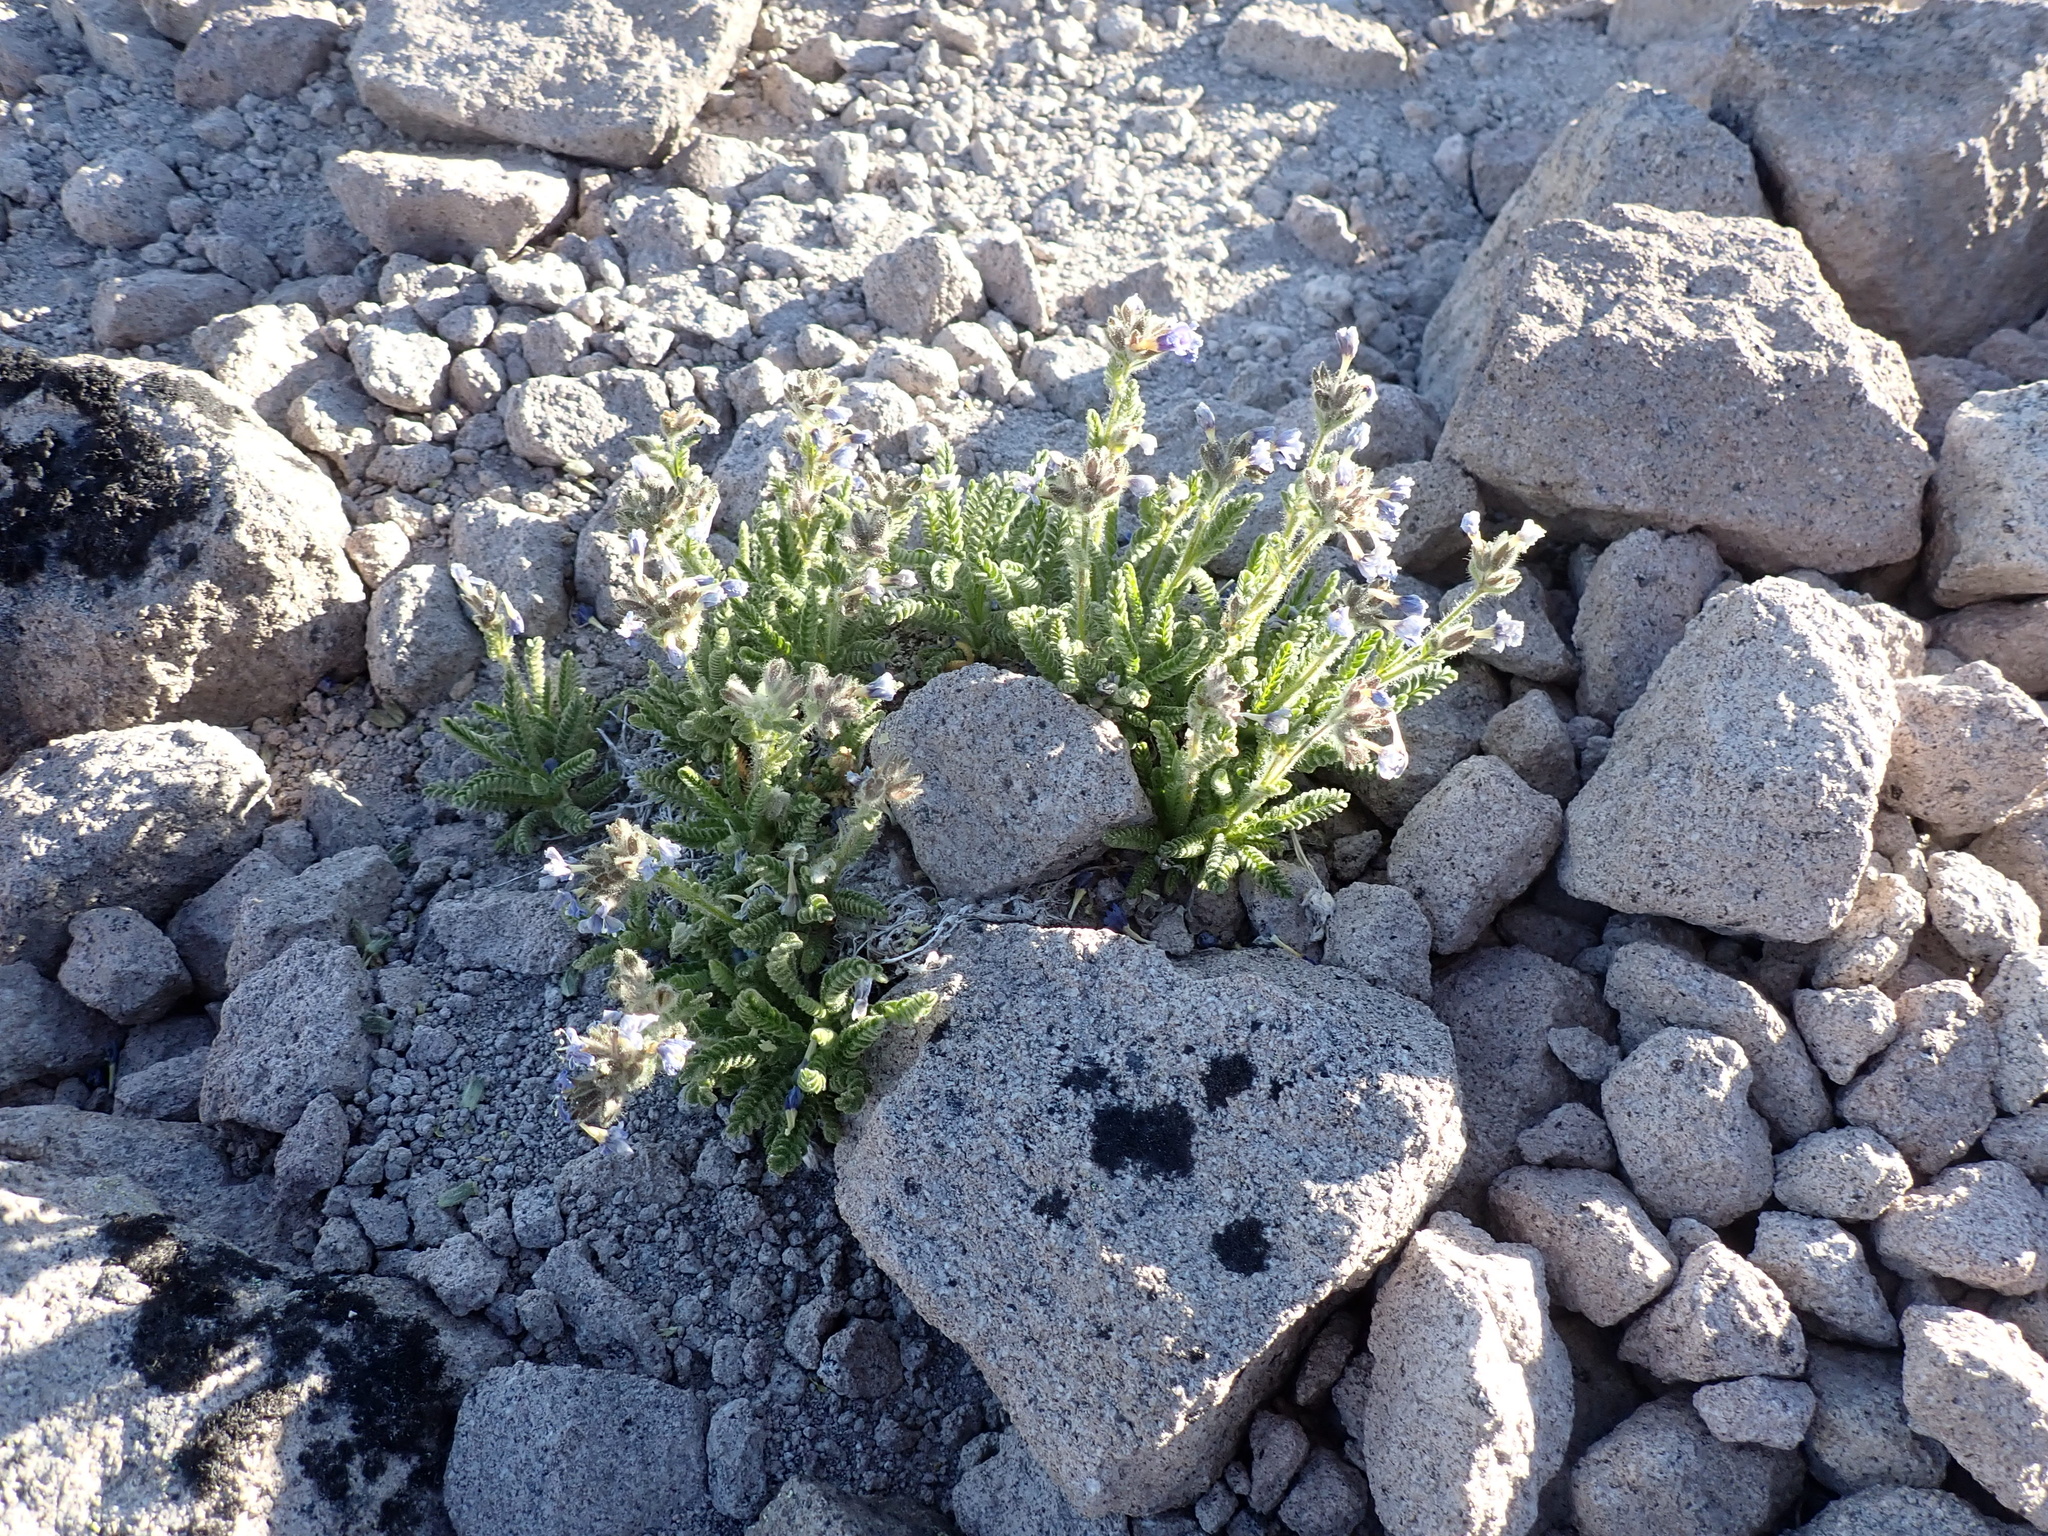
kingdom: Plantae
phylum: Tracheophyta
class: Magnoliopsida
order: Ericales
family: Polemoniaceae
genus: Polemonium
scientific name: Polemonium elegans
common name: Elegant jacob's-ladder
